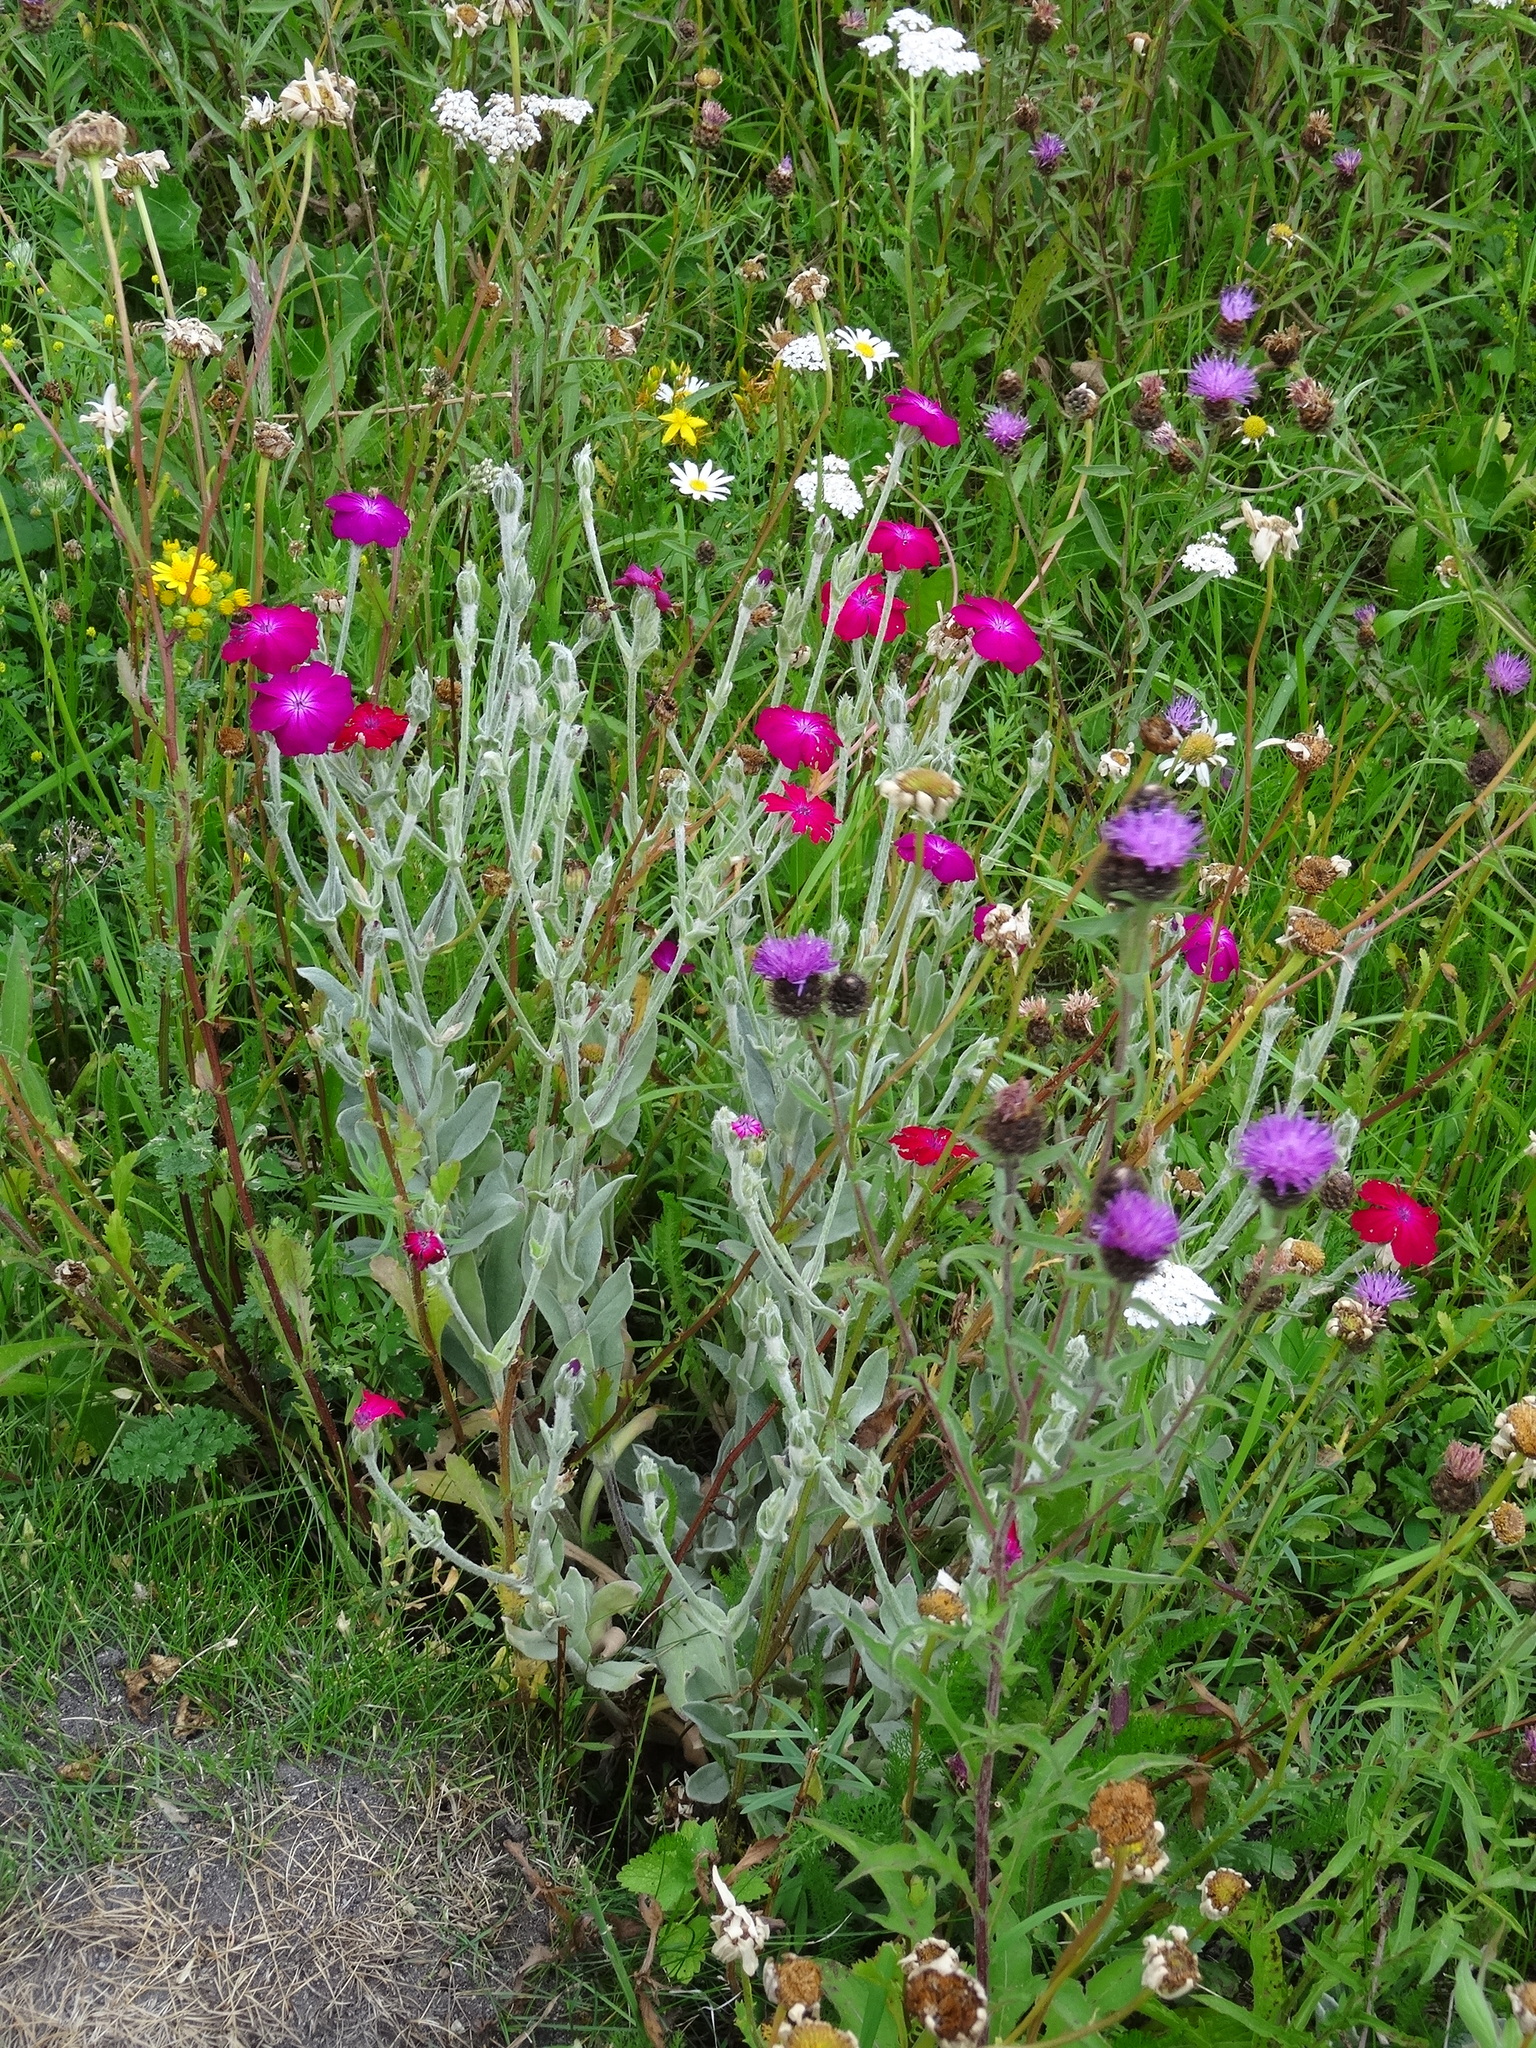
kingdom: Plantae
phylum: Tracheophyta
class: Magnoliopsida
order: Caryophyllales
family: Caryophyllaceae
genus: Silene
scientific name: Silene coronaria
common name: Rose campion
